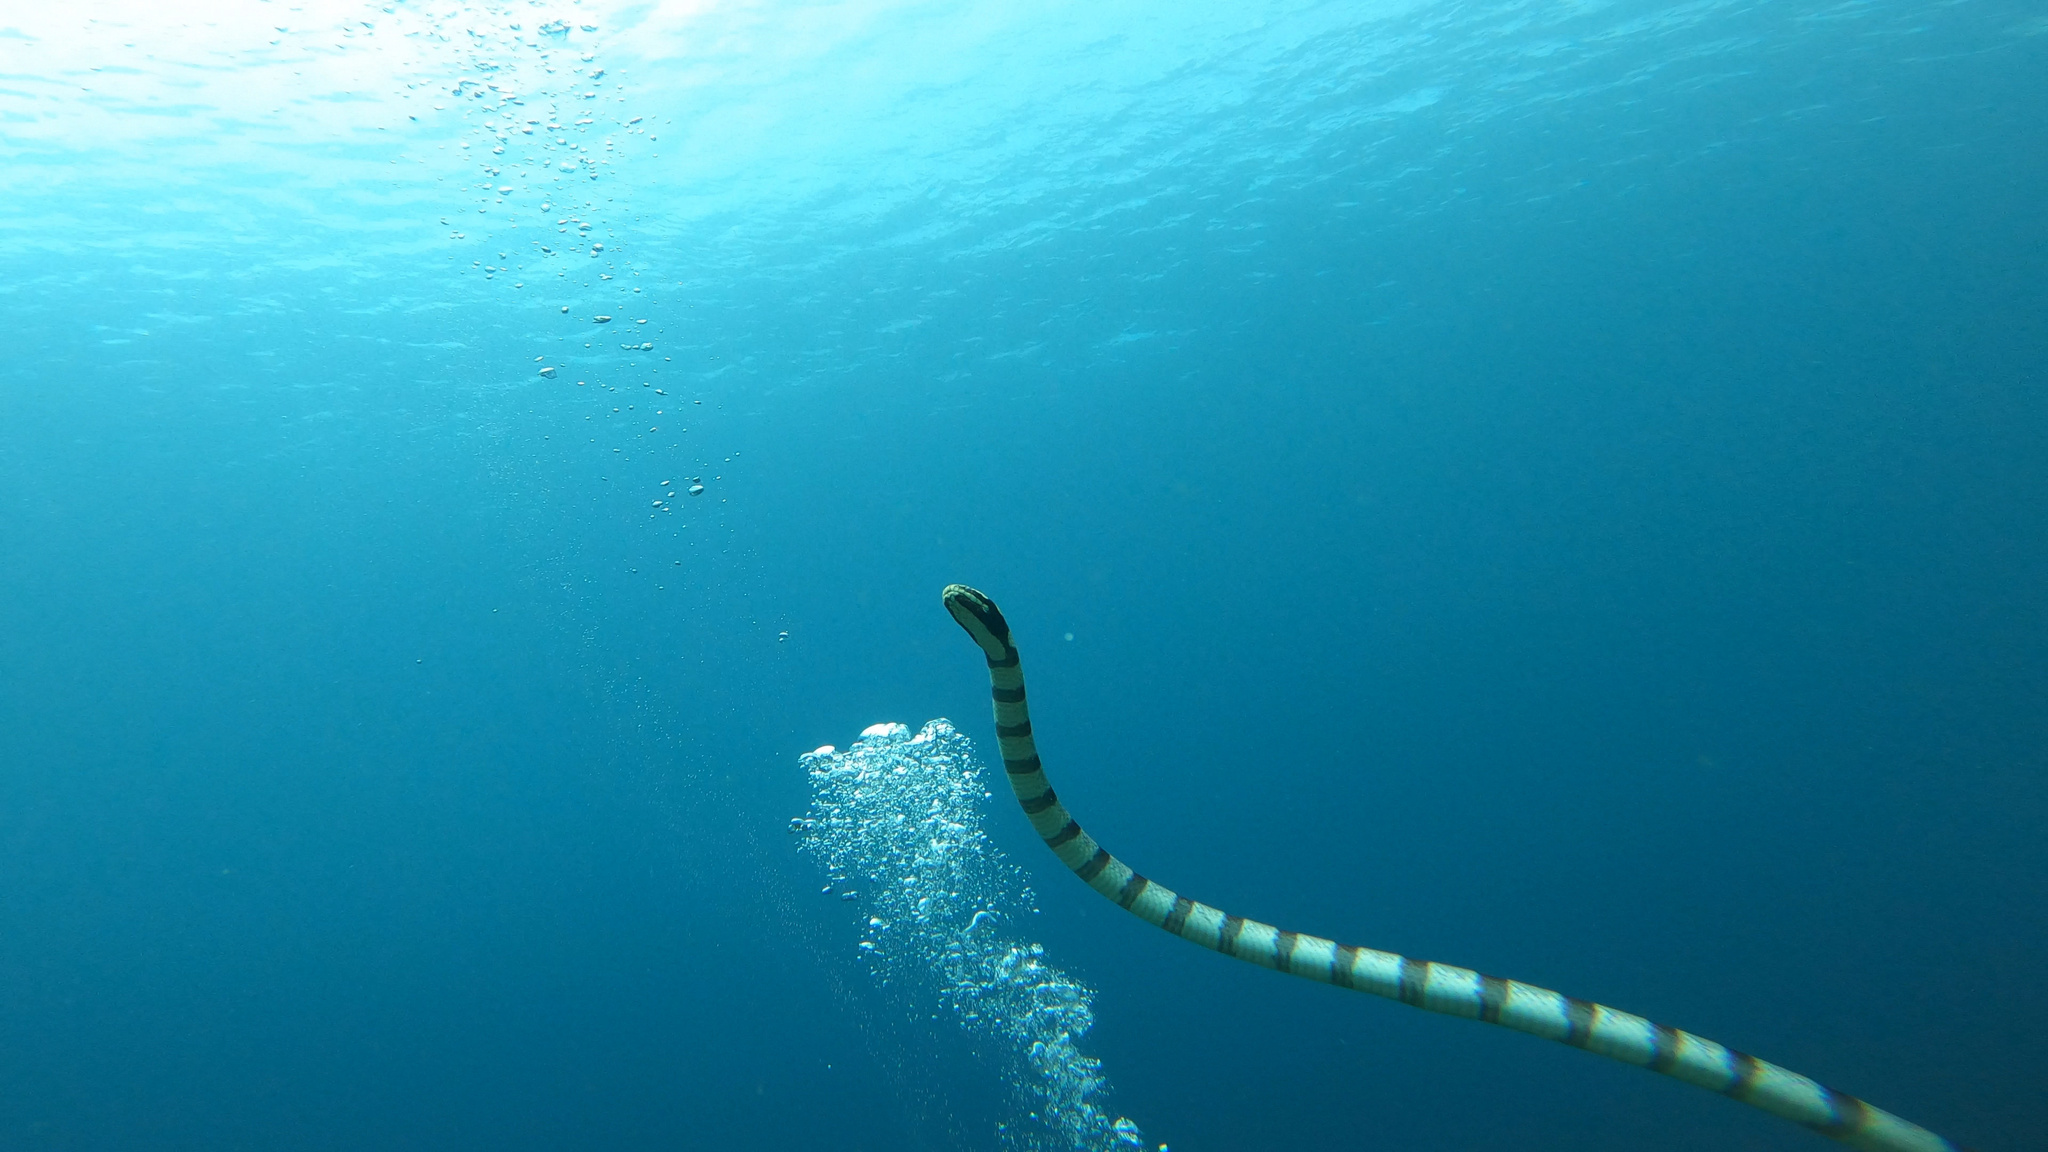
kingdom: Animalia
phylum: Chordata
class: Squamata
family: Elapidae
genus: Laticauda
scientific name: Laticauda colubrina
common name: Yellow-lipped sea krait
